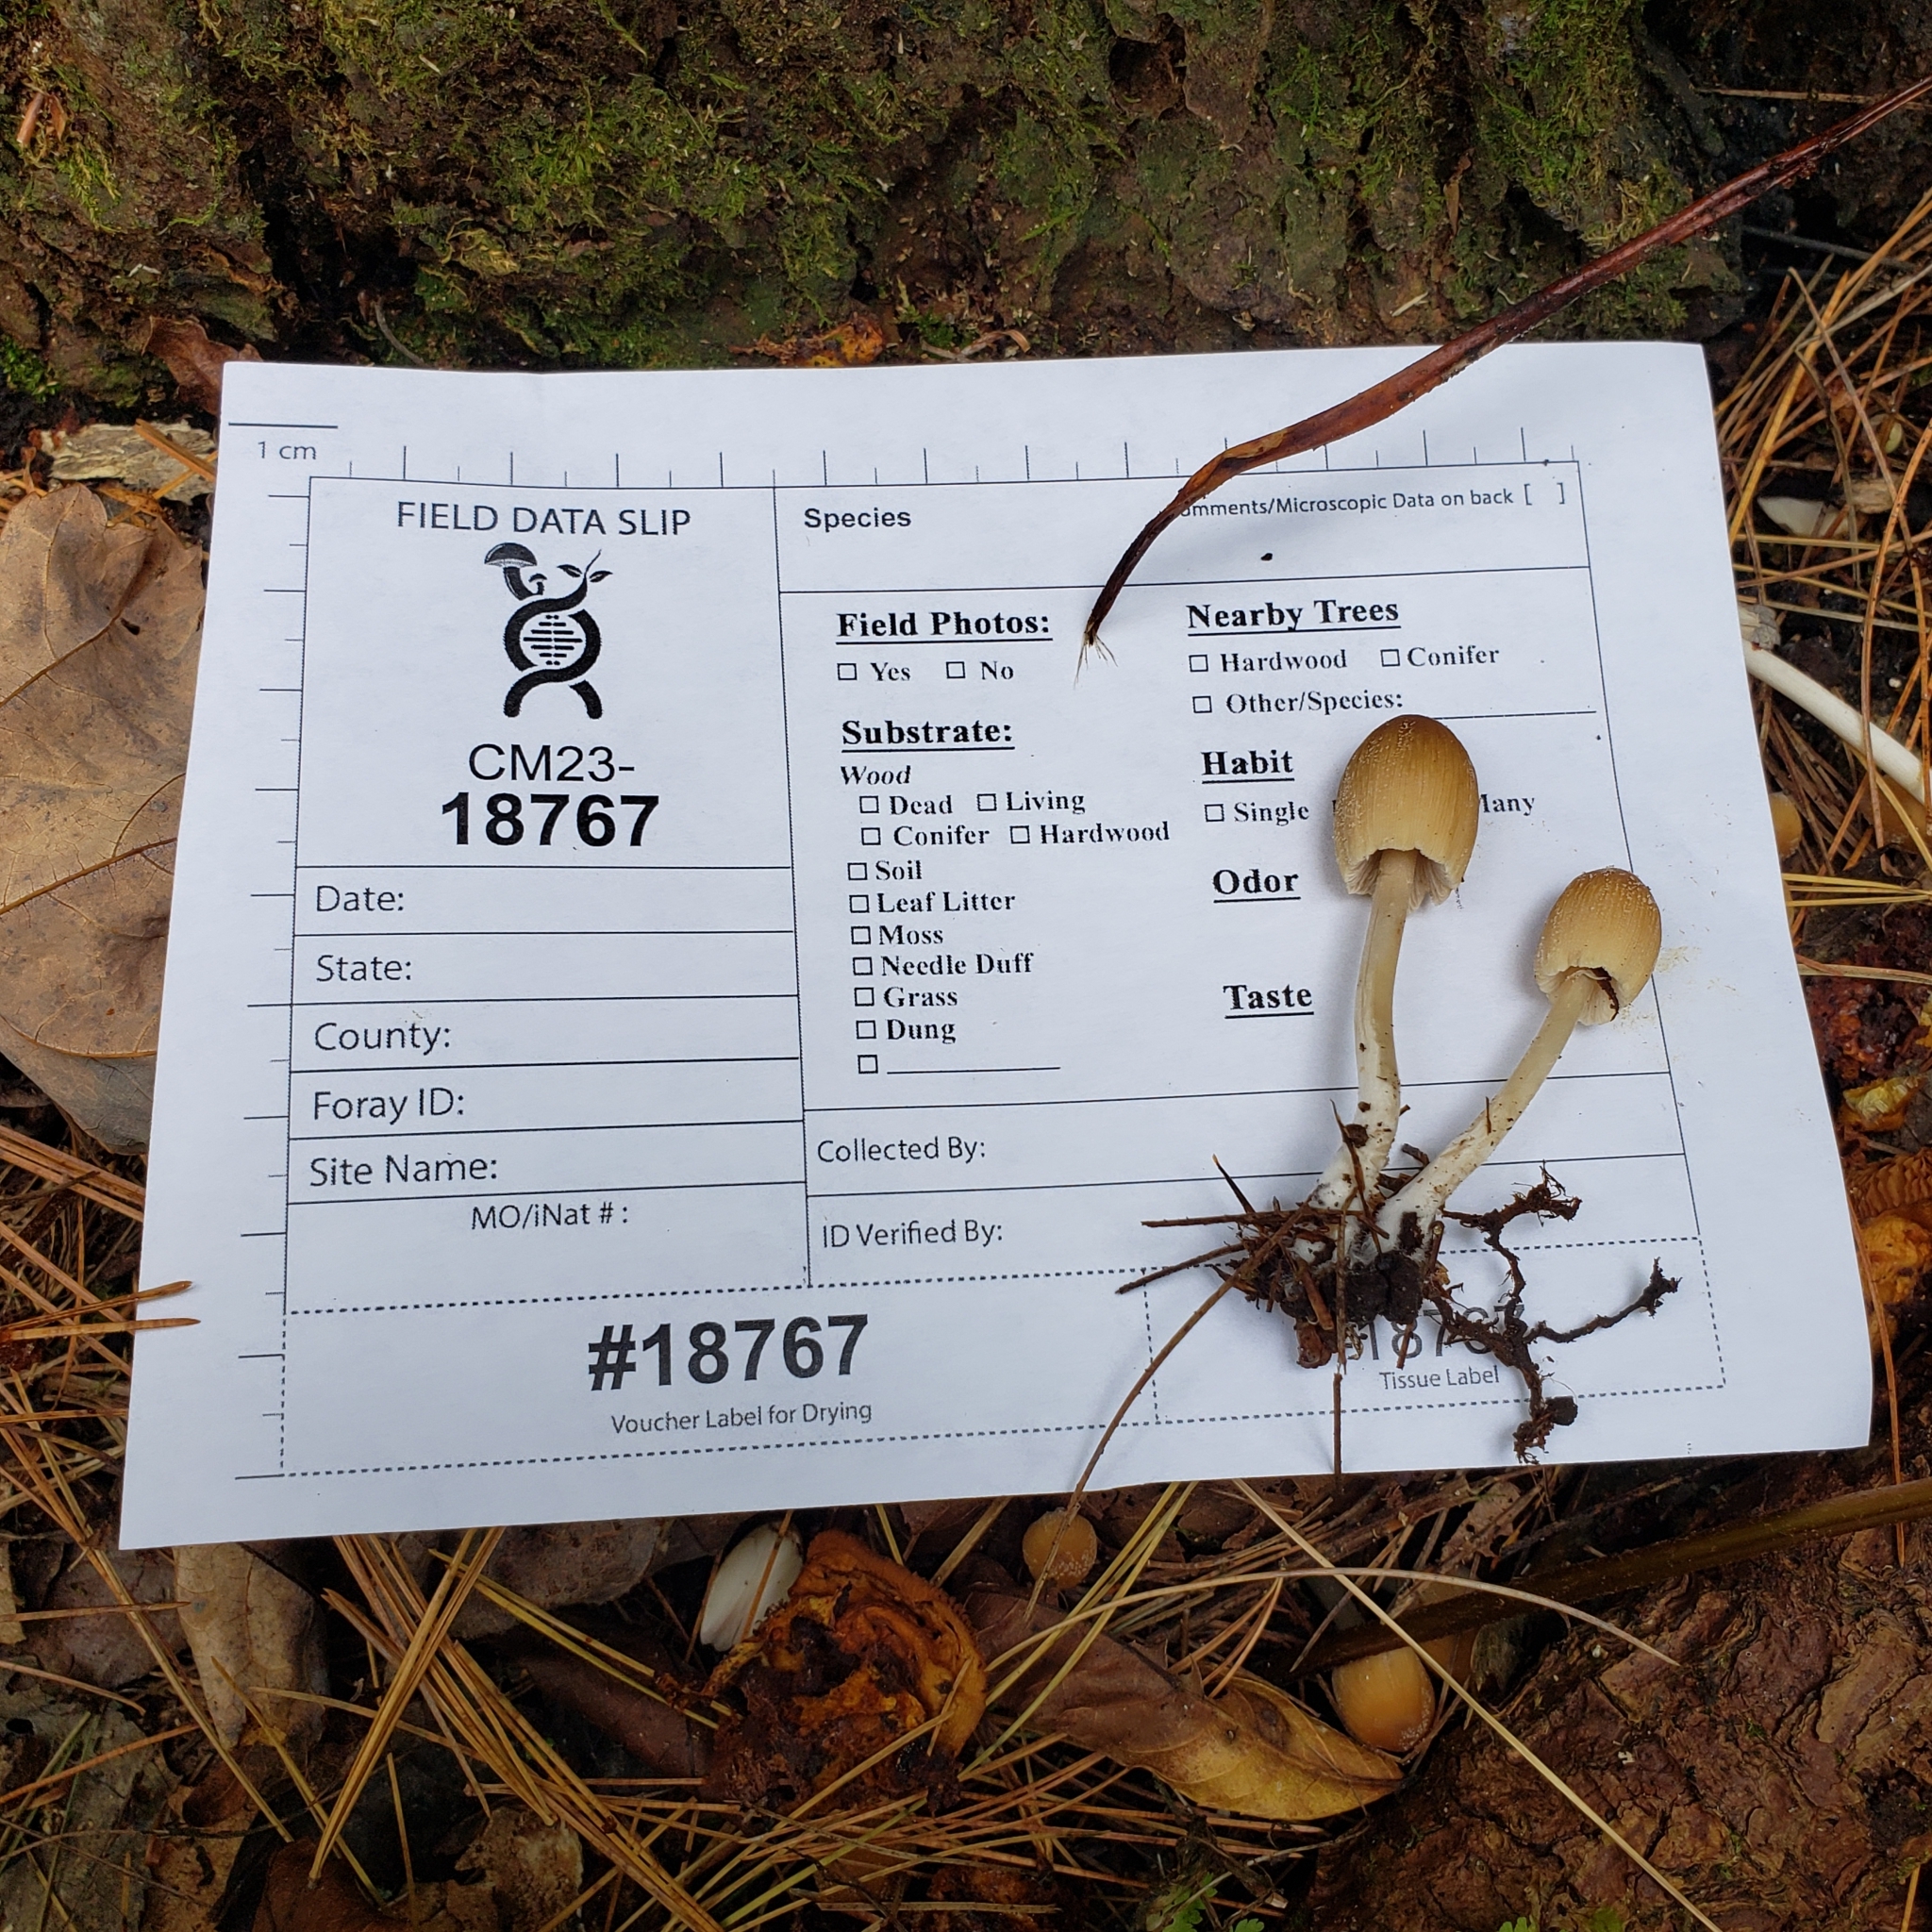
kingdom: Fungi
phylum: Basidiomycota
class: Agaricomycetes
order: Agaricales
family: Psathyrellaceae
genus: Coprinellus
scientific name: Coprinellus micaceus
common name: Glistening ink-cap
